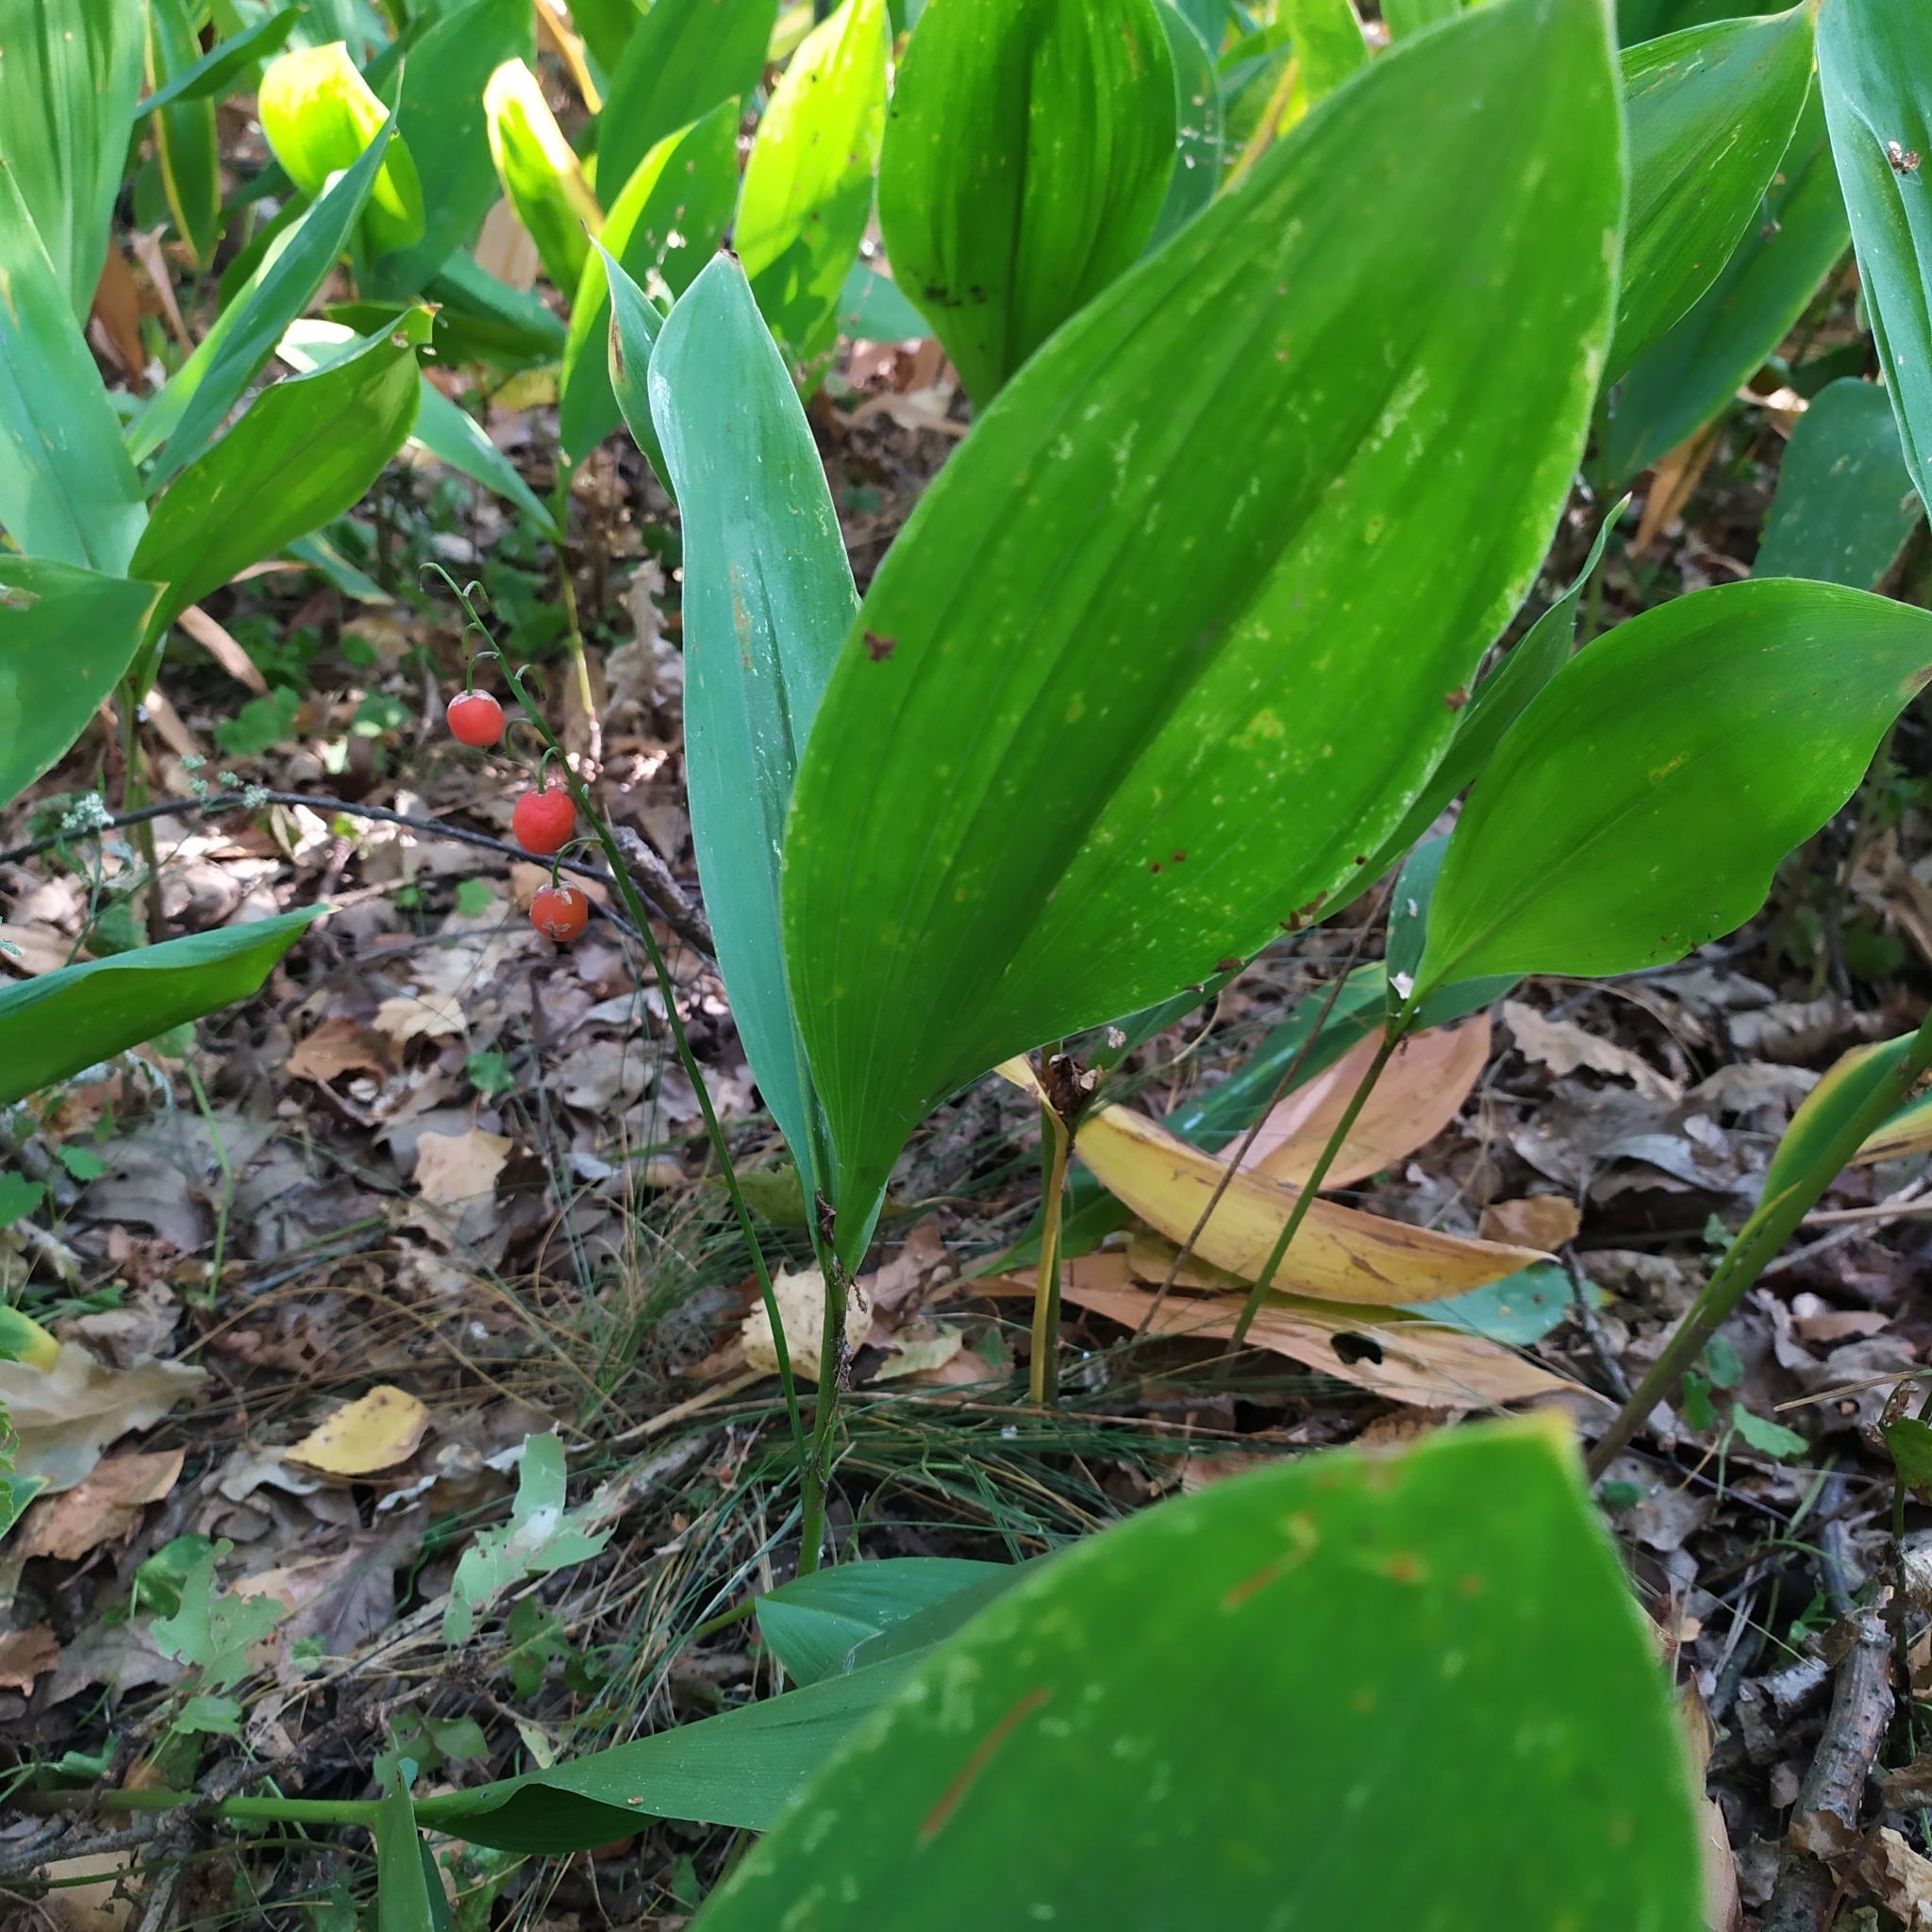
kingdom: Plantae
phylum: Tracheophyta
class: Liliopsida
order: Asparagales
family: Asparagaceae
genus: Convallaria
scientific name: Convallaria majalis
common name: Lily-of-the-valley
